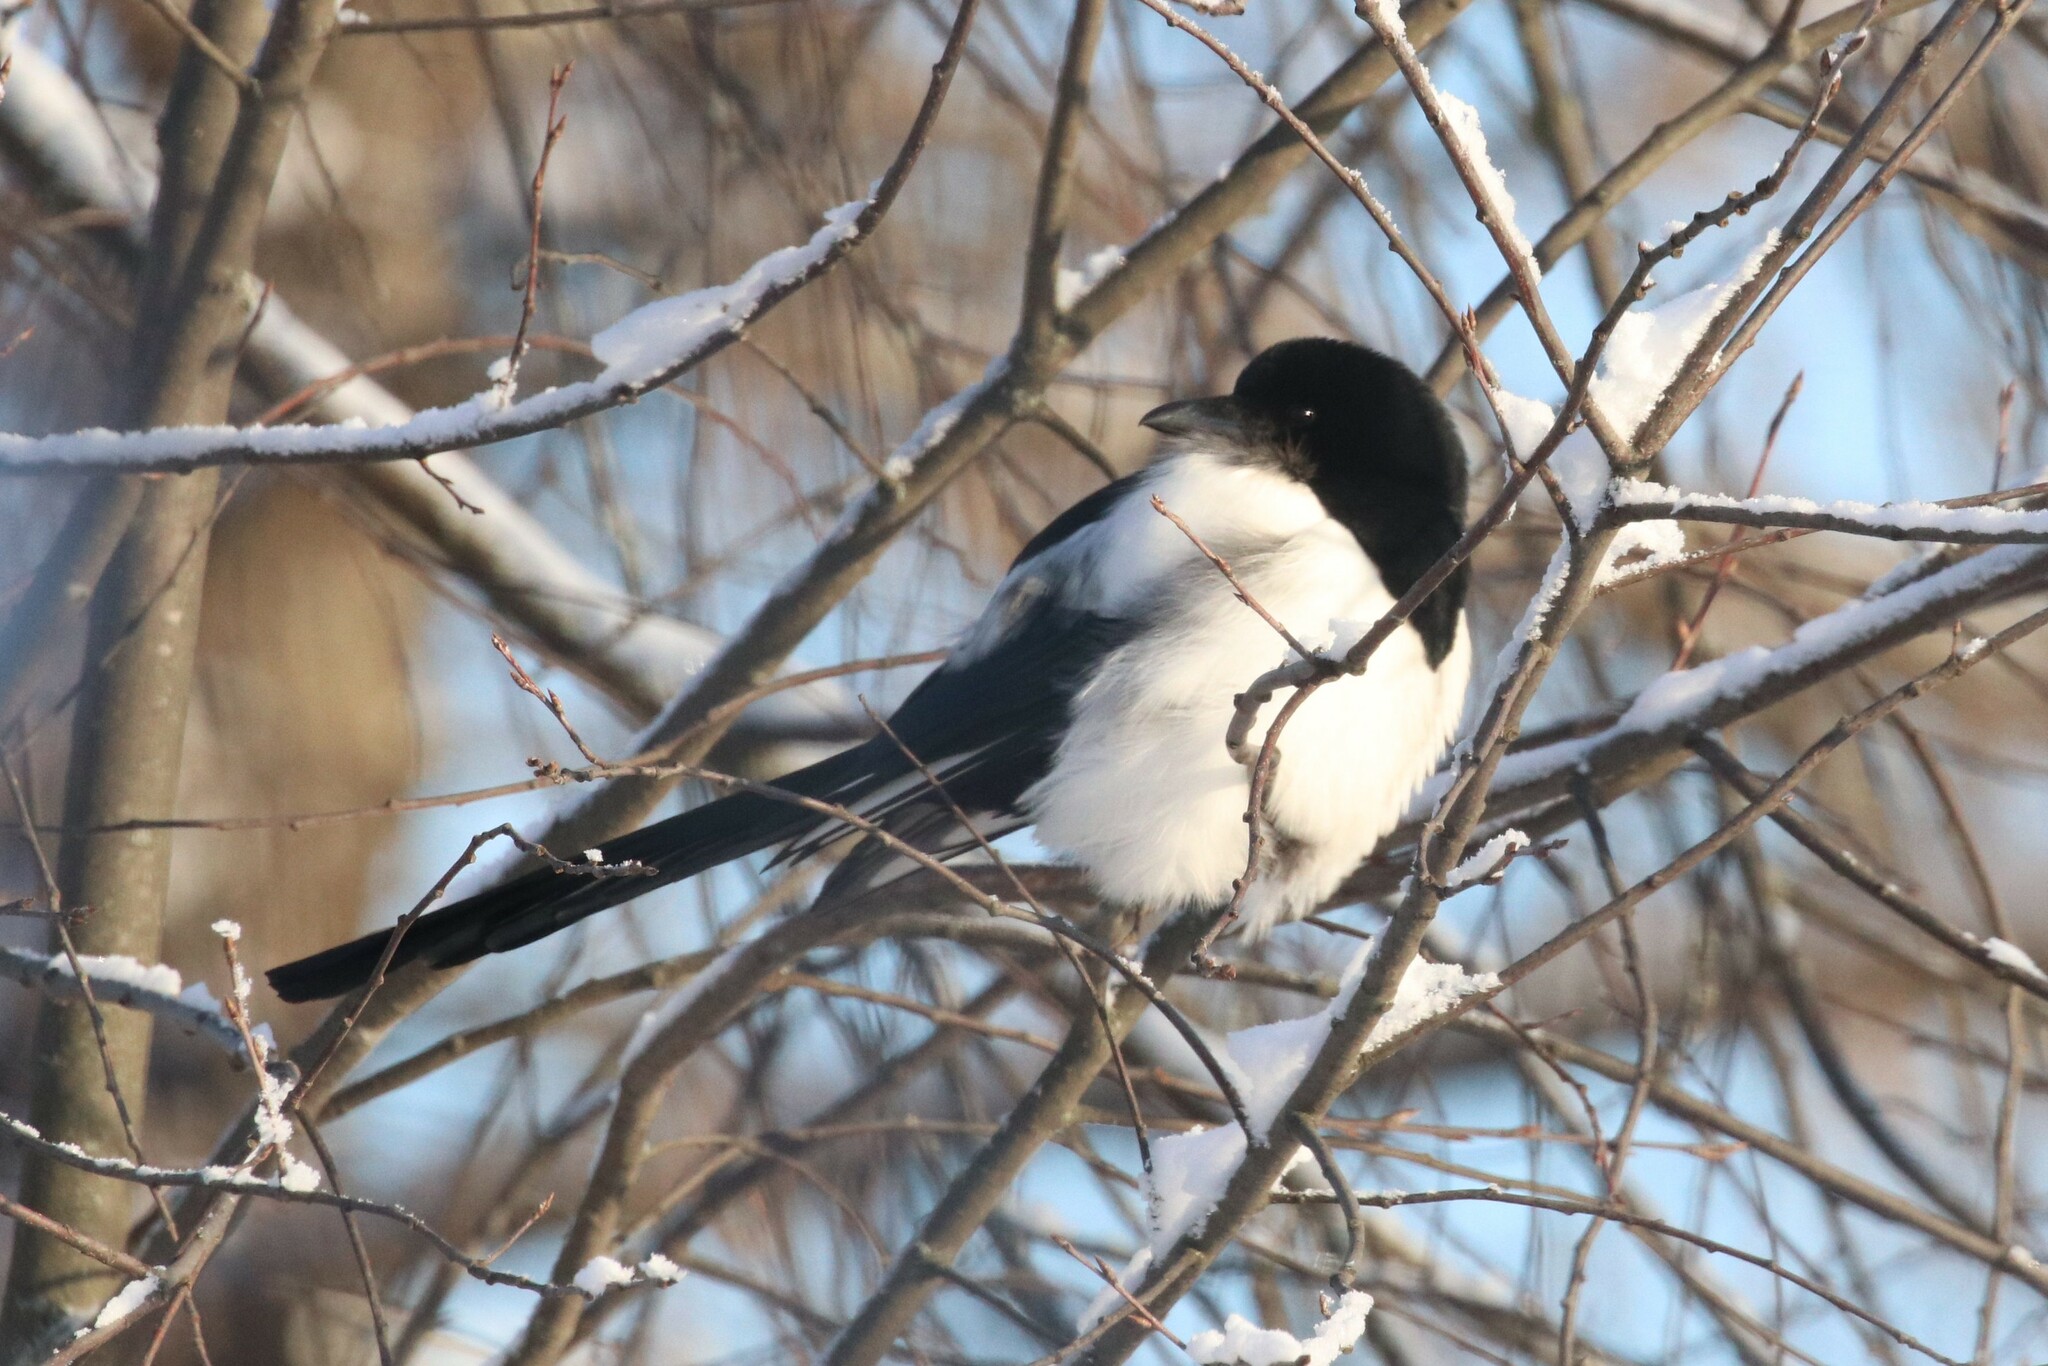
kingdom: Animalia
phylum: Chordata
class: Aves
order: Passeriformes
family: Corvidae
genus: Pica
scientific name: Pica pica
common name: Eurasian magpie
